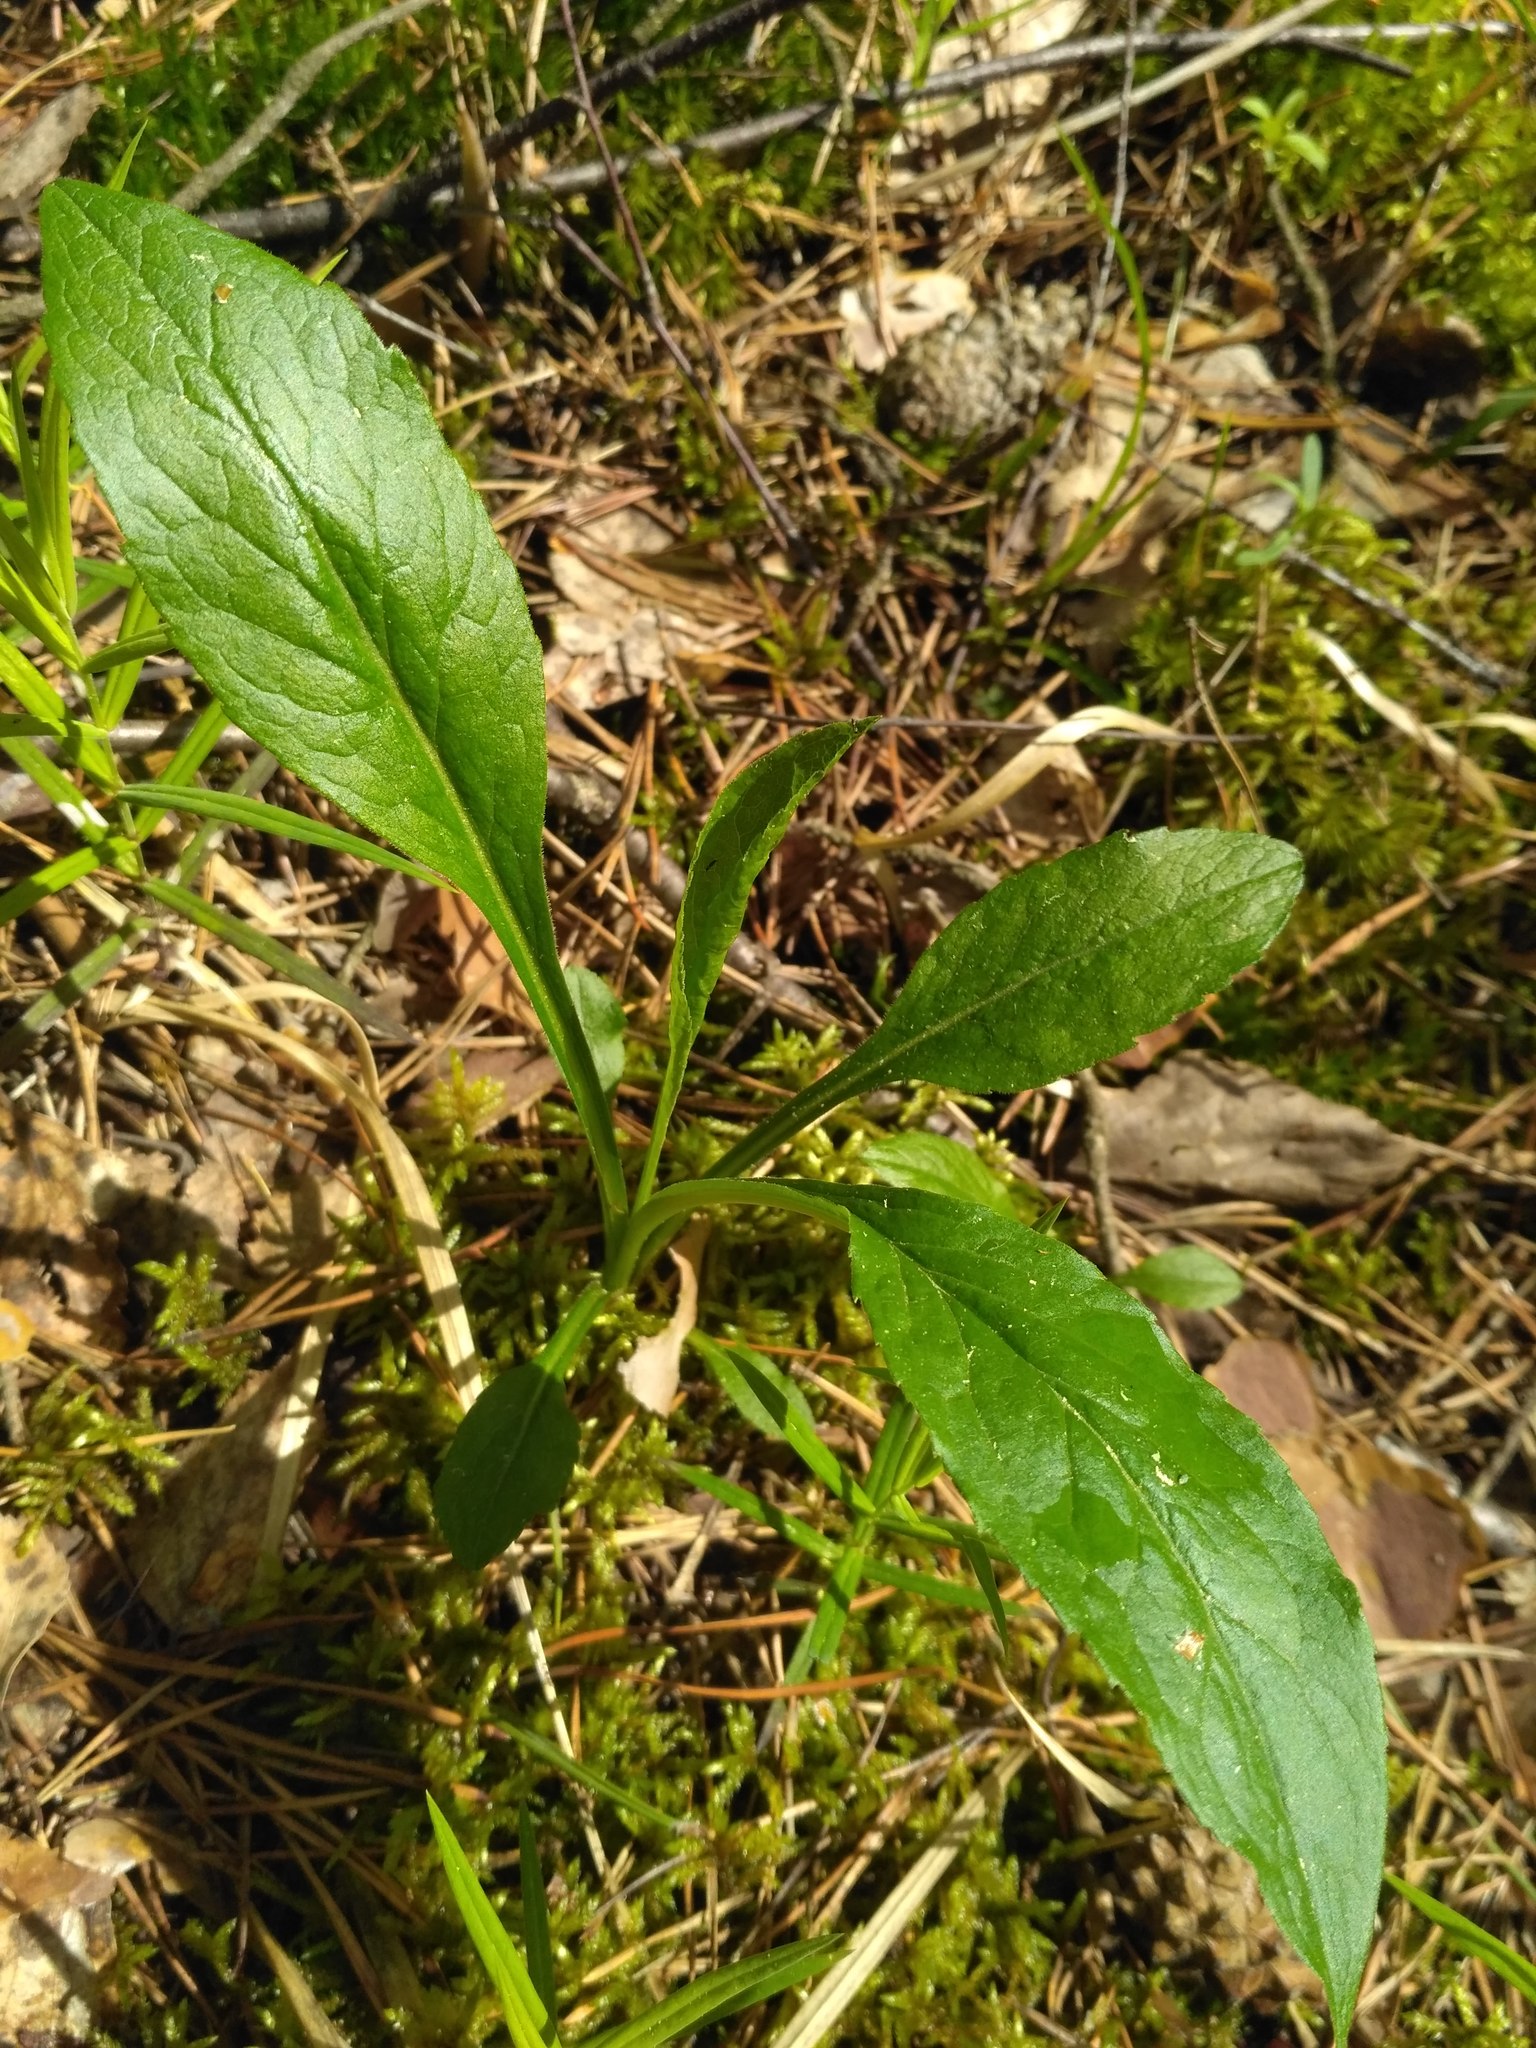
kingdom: Plantae
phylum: Tracheophyta
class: Magnoliopsida
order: Asterales
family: Asteraceae
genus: Solidago
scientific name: Solidago virgaurea
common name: Goldenrod
